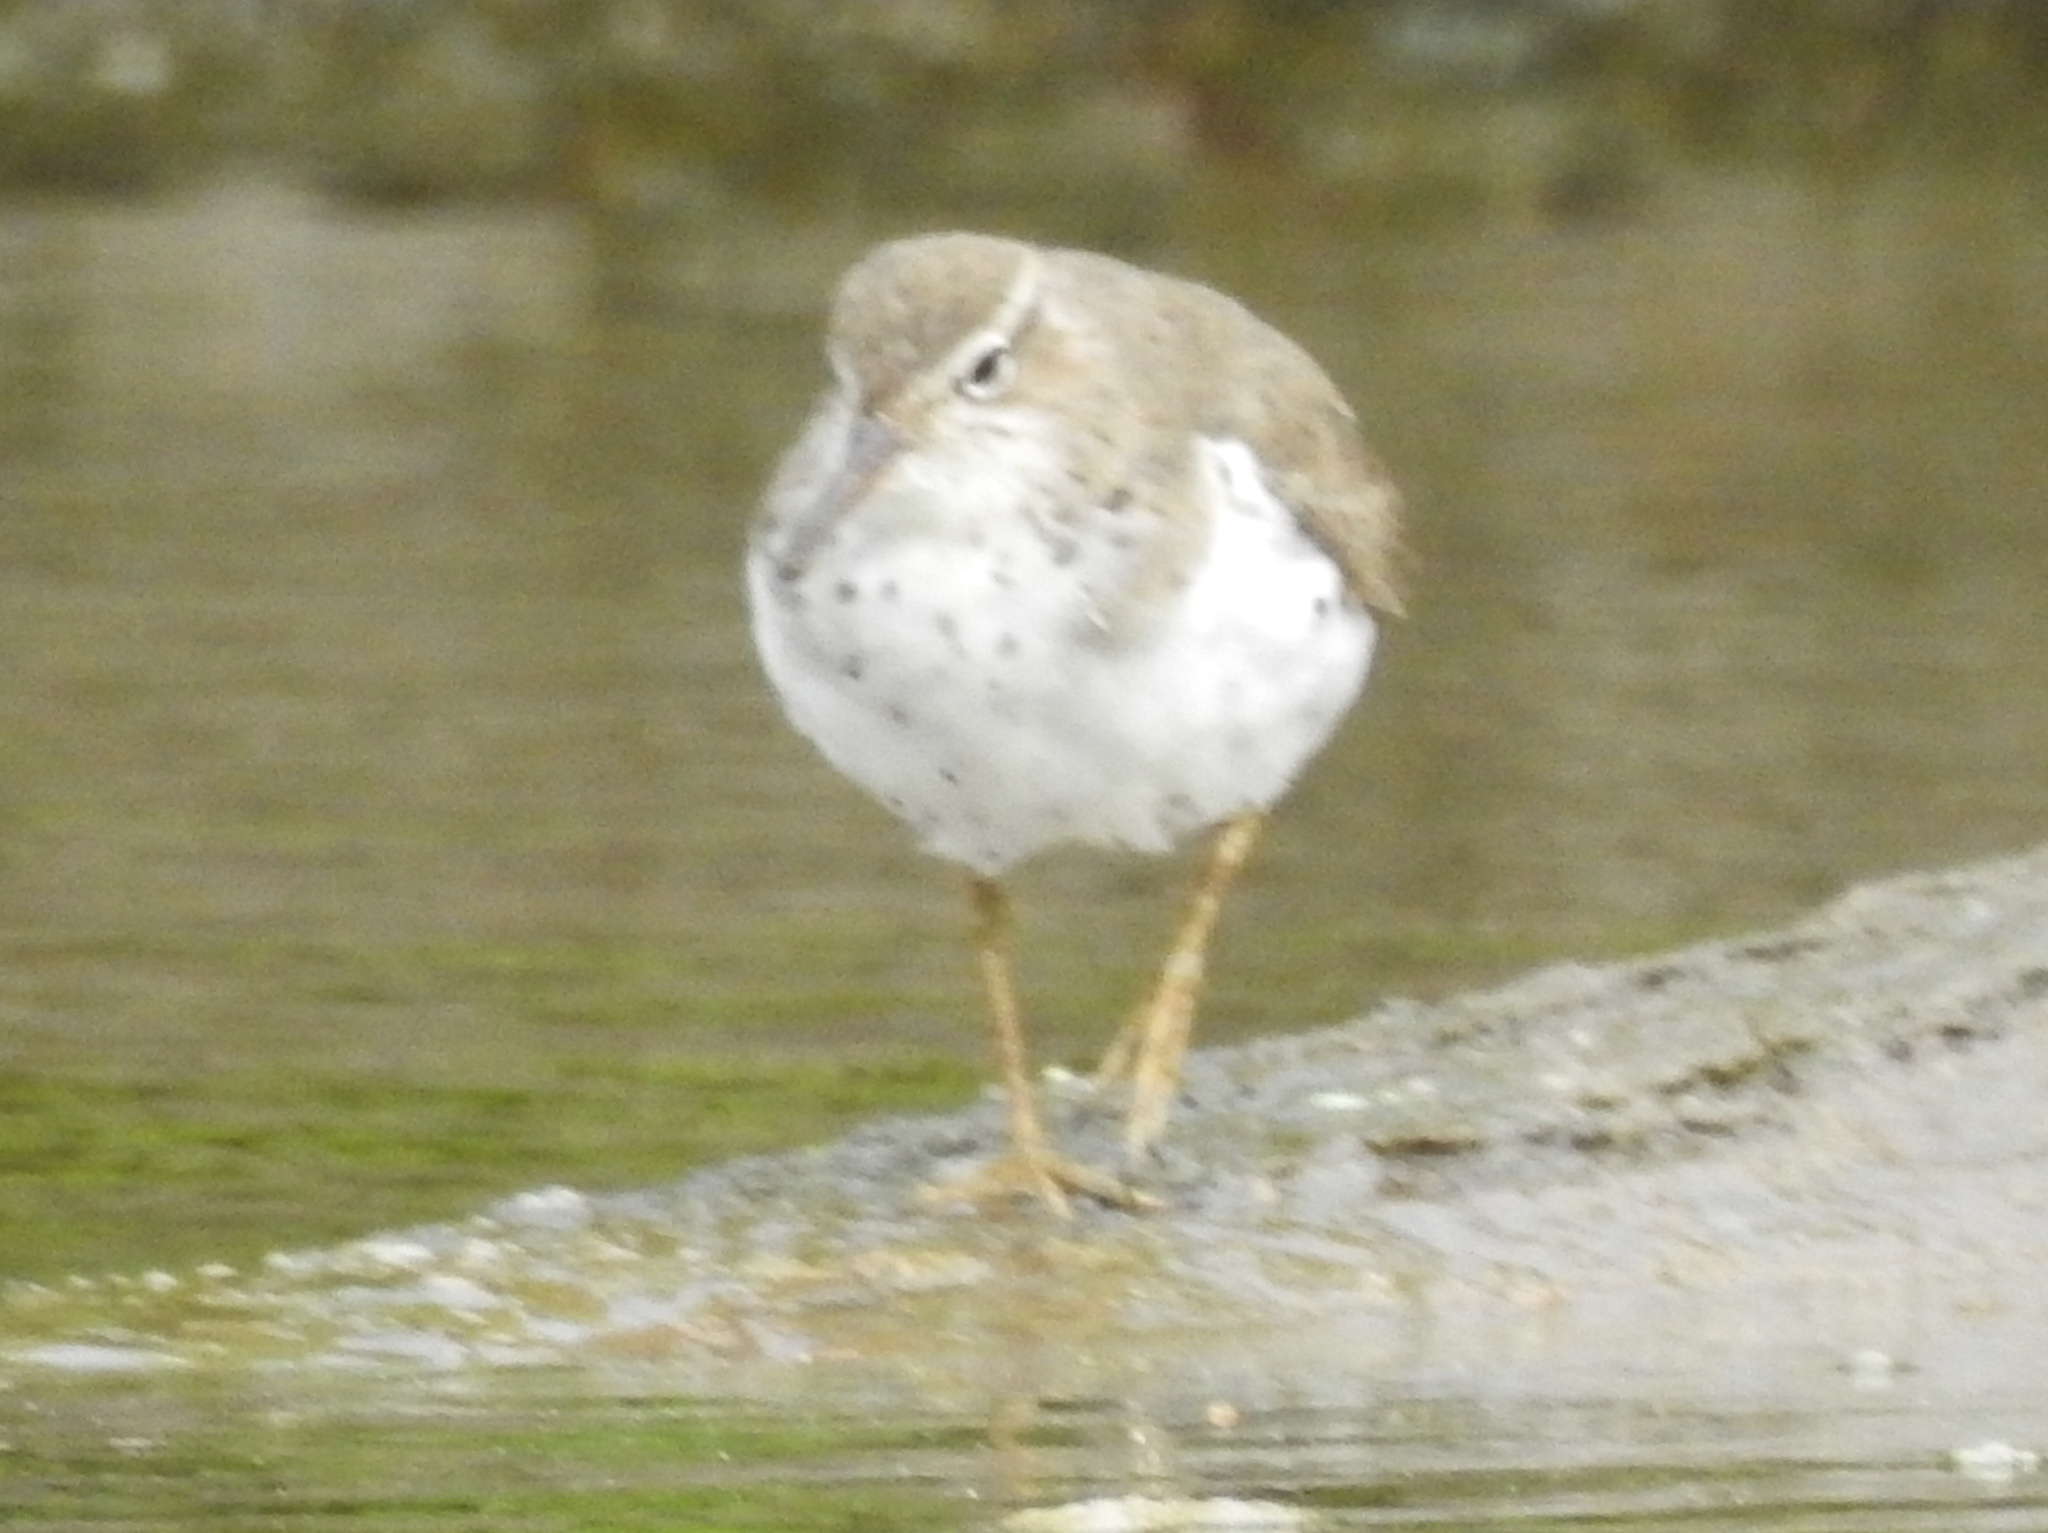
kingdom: Animalia
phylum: Chordata
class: Aves
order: Charadriiformes
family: Scolopacidae
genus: Actitis
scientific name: Actitis macularius
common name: Spotted sandpiper
